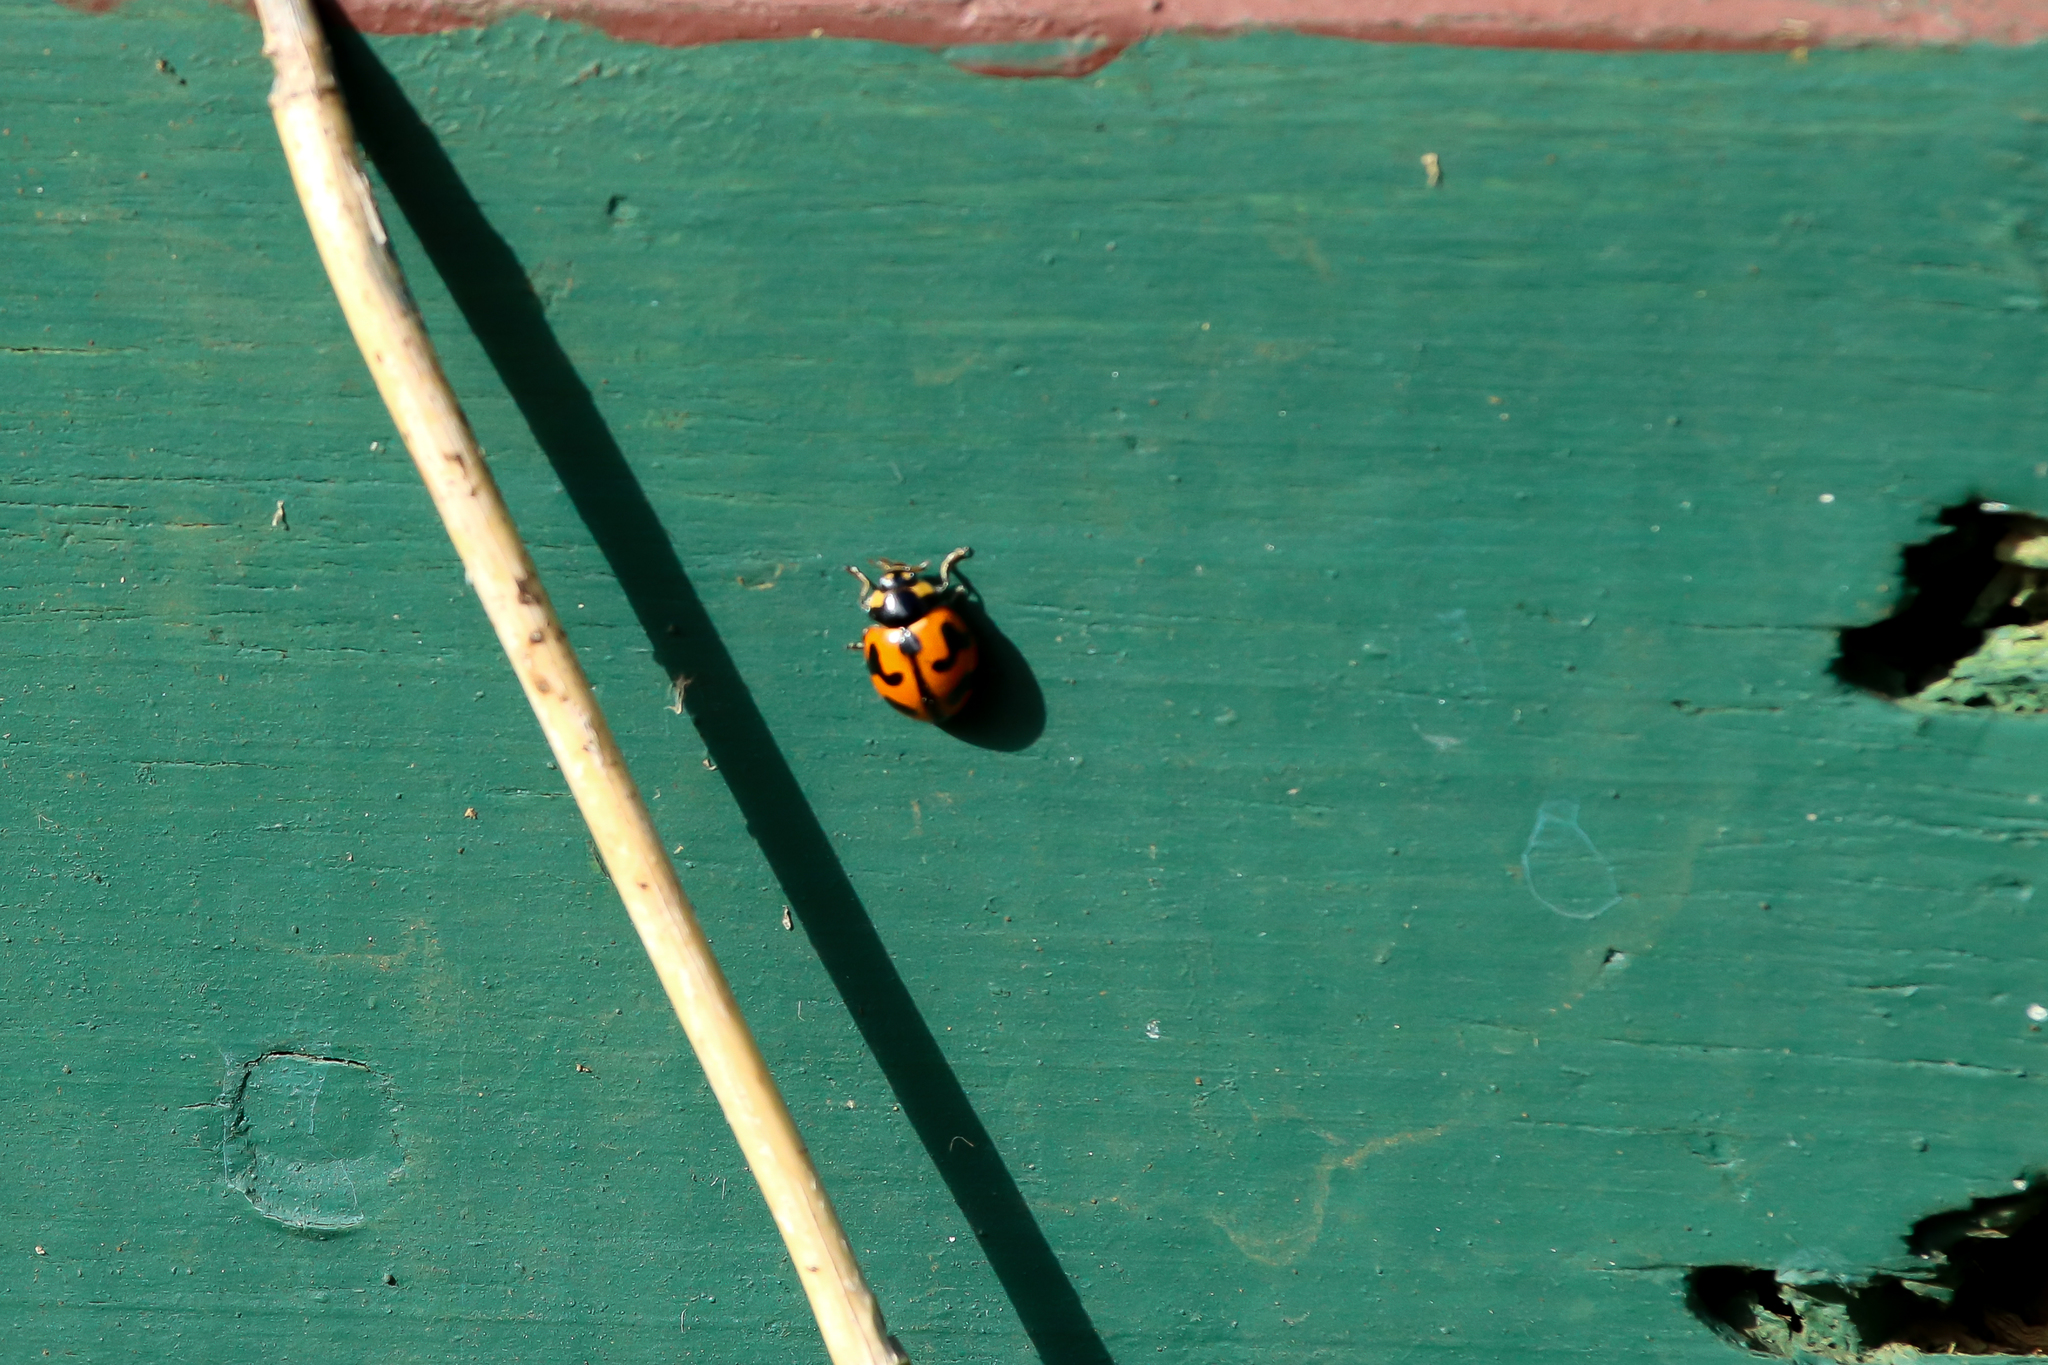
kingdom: Animalia
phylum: Arthropoda
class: Insecta
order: Coleoptera
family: Coccinellidae
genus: Coccinella
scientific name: Coccinella transversalis
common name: Transverse lady beetle
